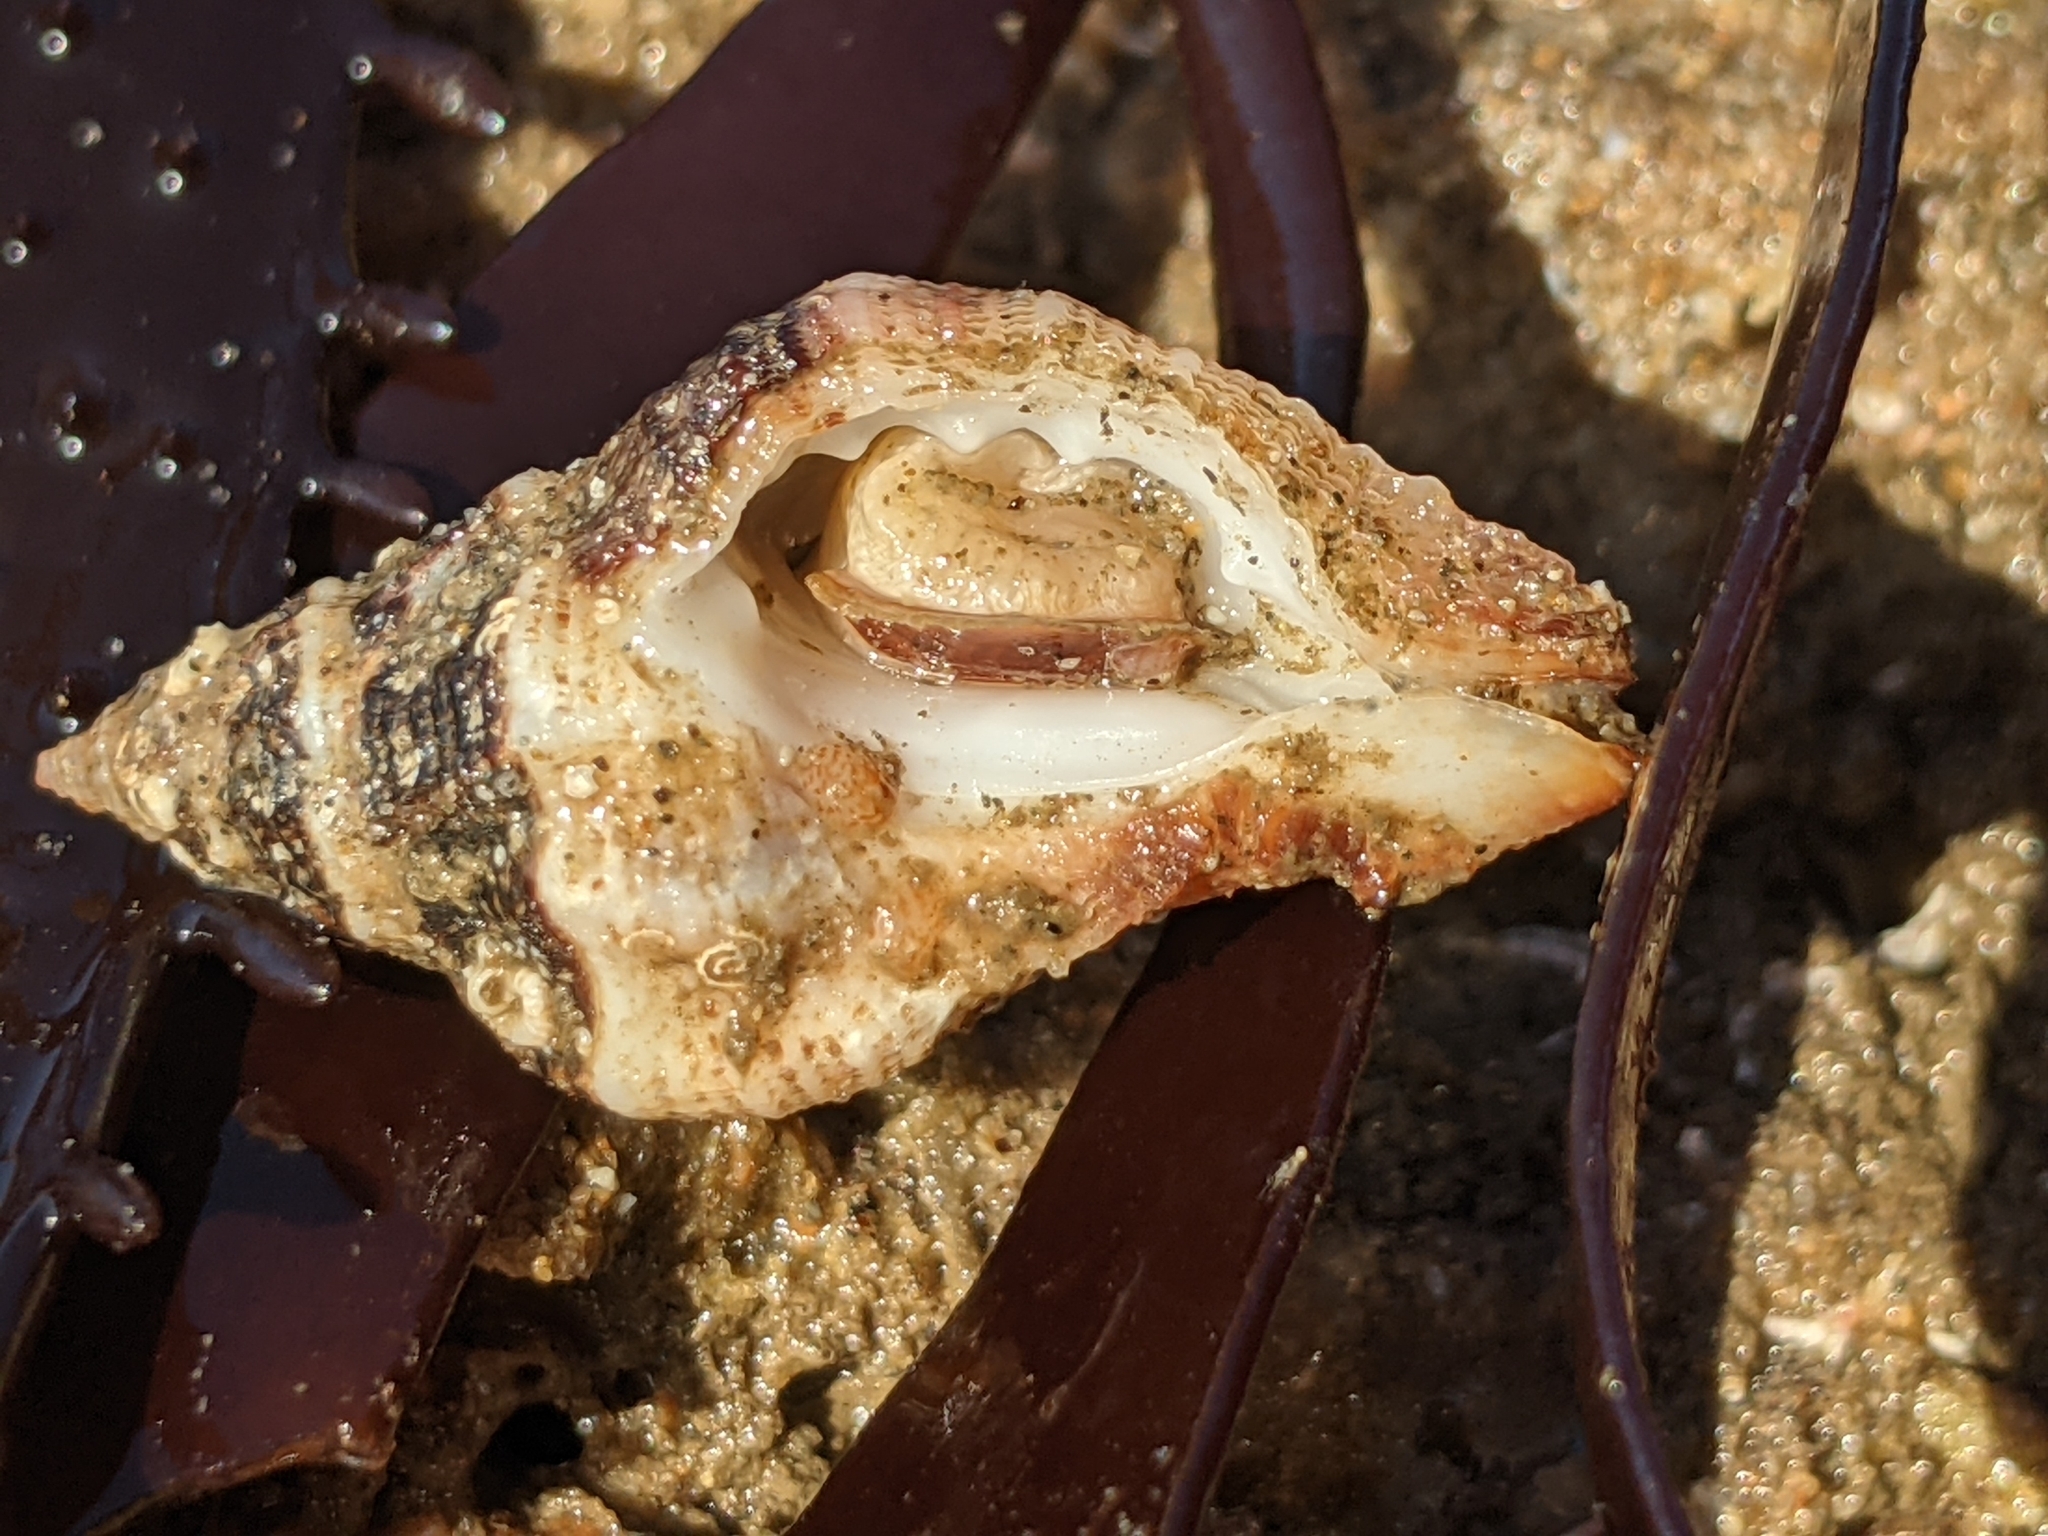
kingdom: Animalia
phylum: Mollusca
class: Gastropoda
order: Neogastropoda
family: Muricidae
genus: Ceratostoma
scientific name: Ceratostoma nuttalli
